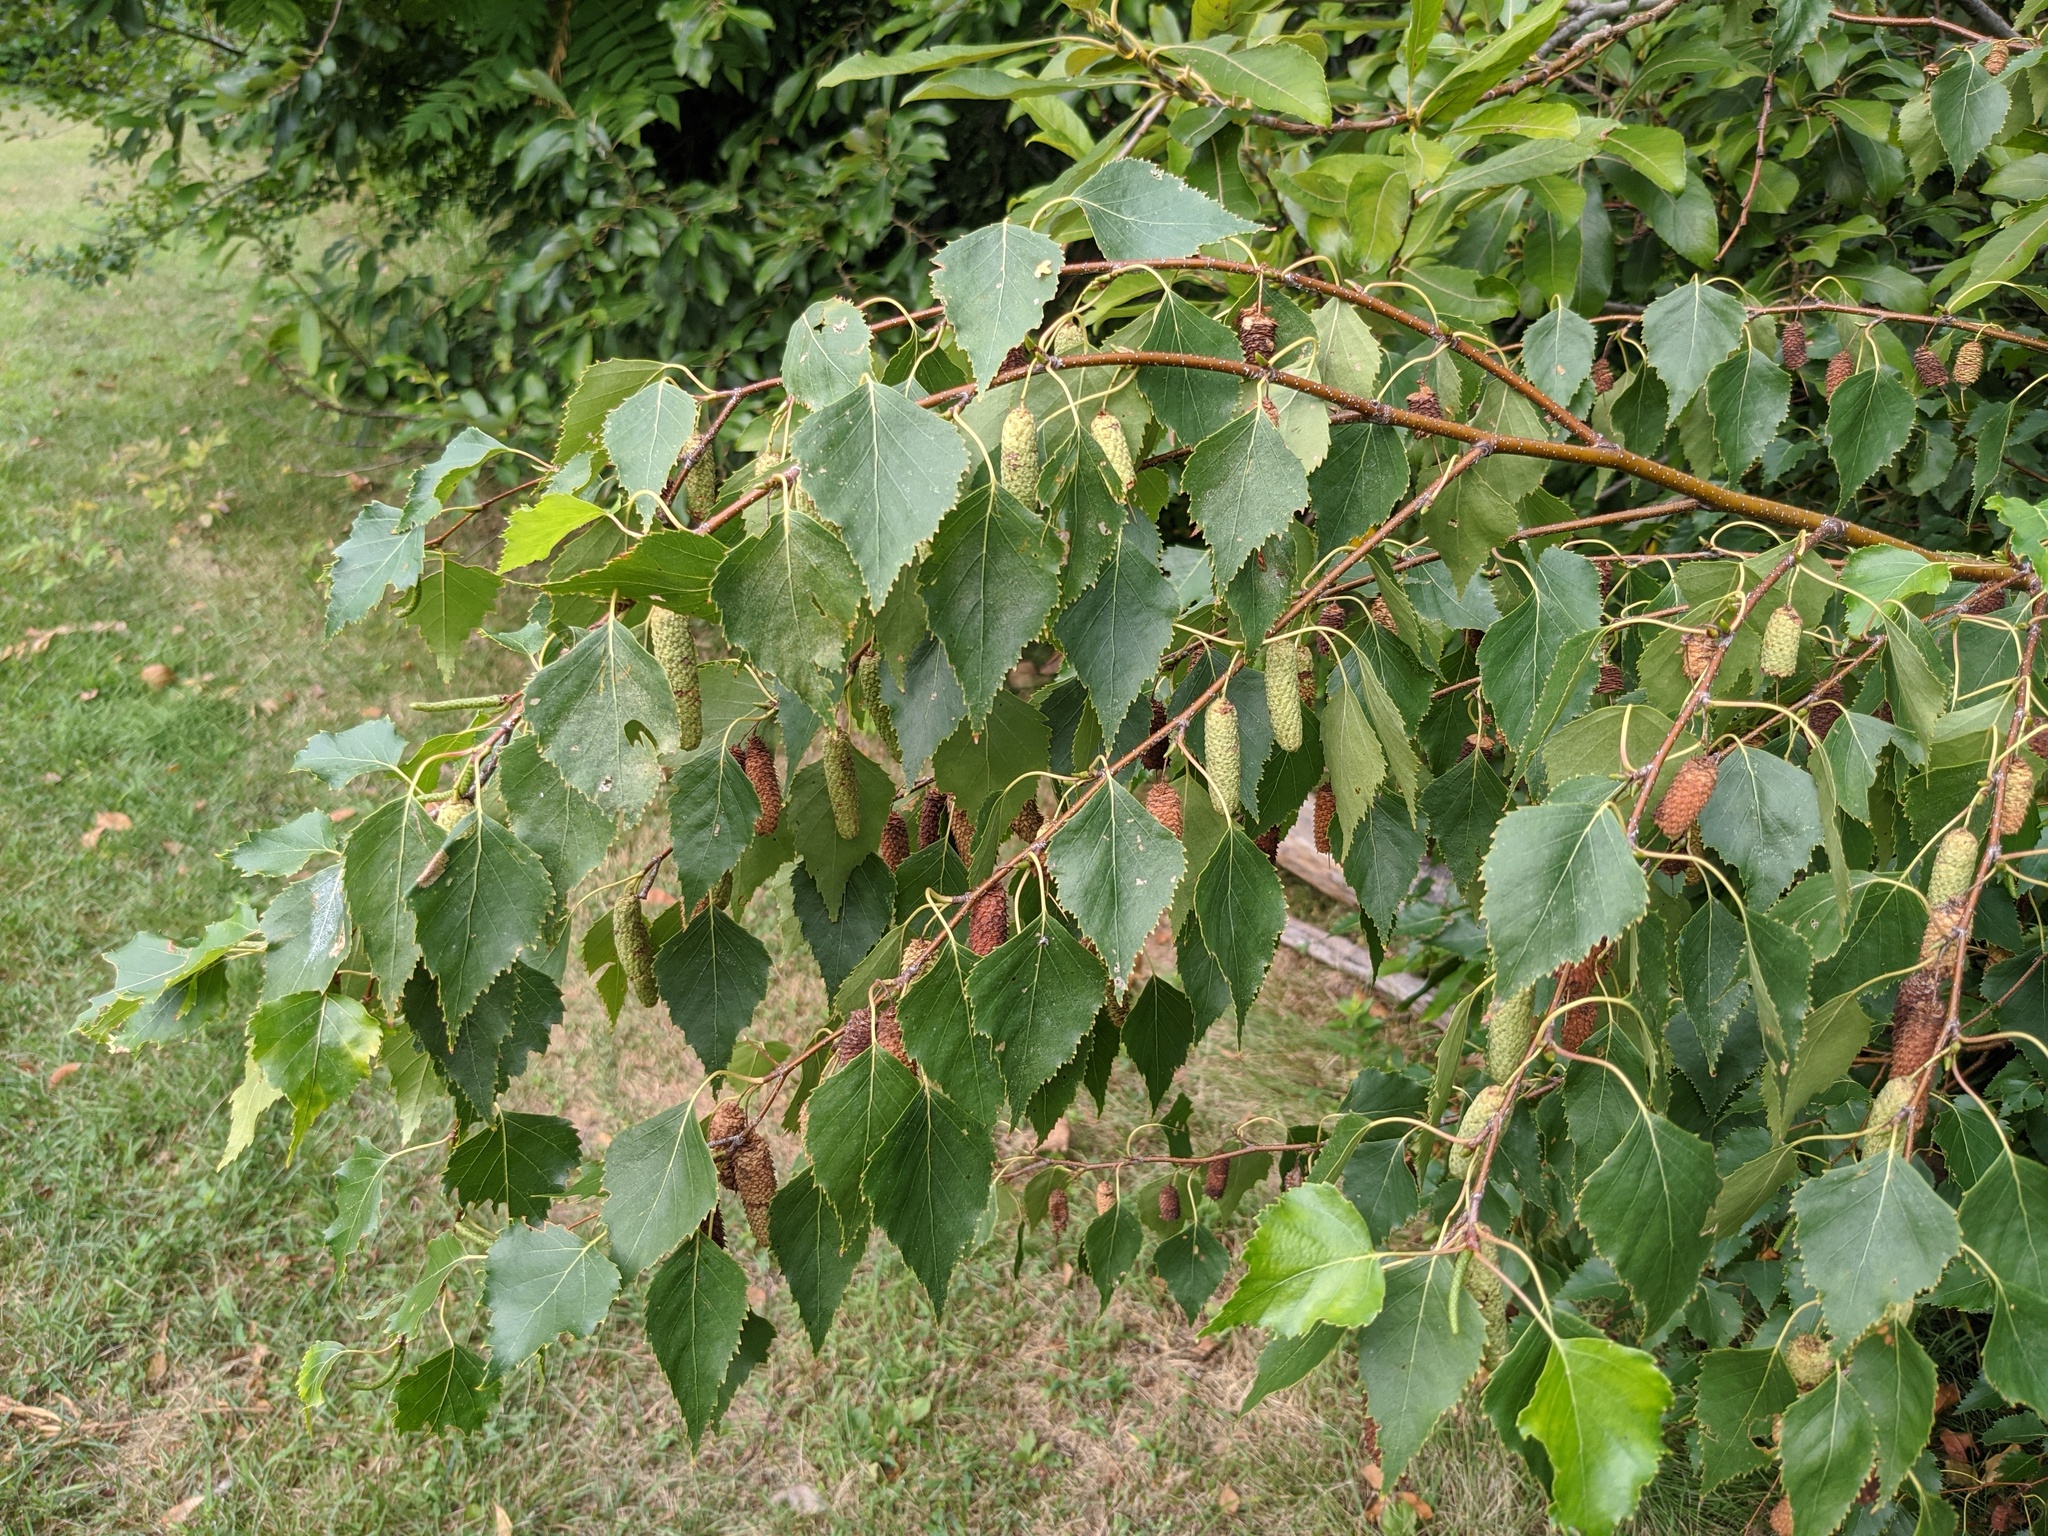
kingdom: Plantae
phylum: Tracheophyta
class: Magnoliopsida
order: Fagales
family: Betulaceae
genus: Betula
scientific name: Betula populifolia
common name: Fire birch
